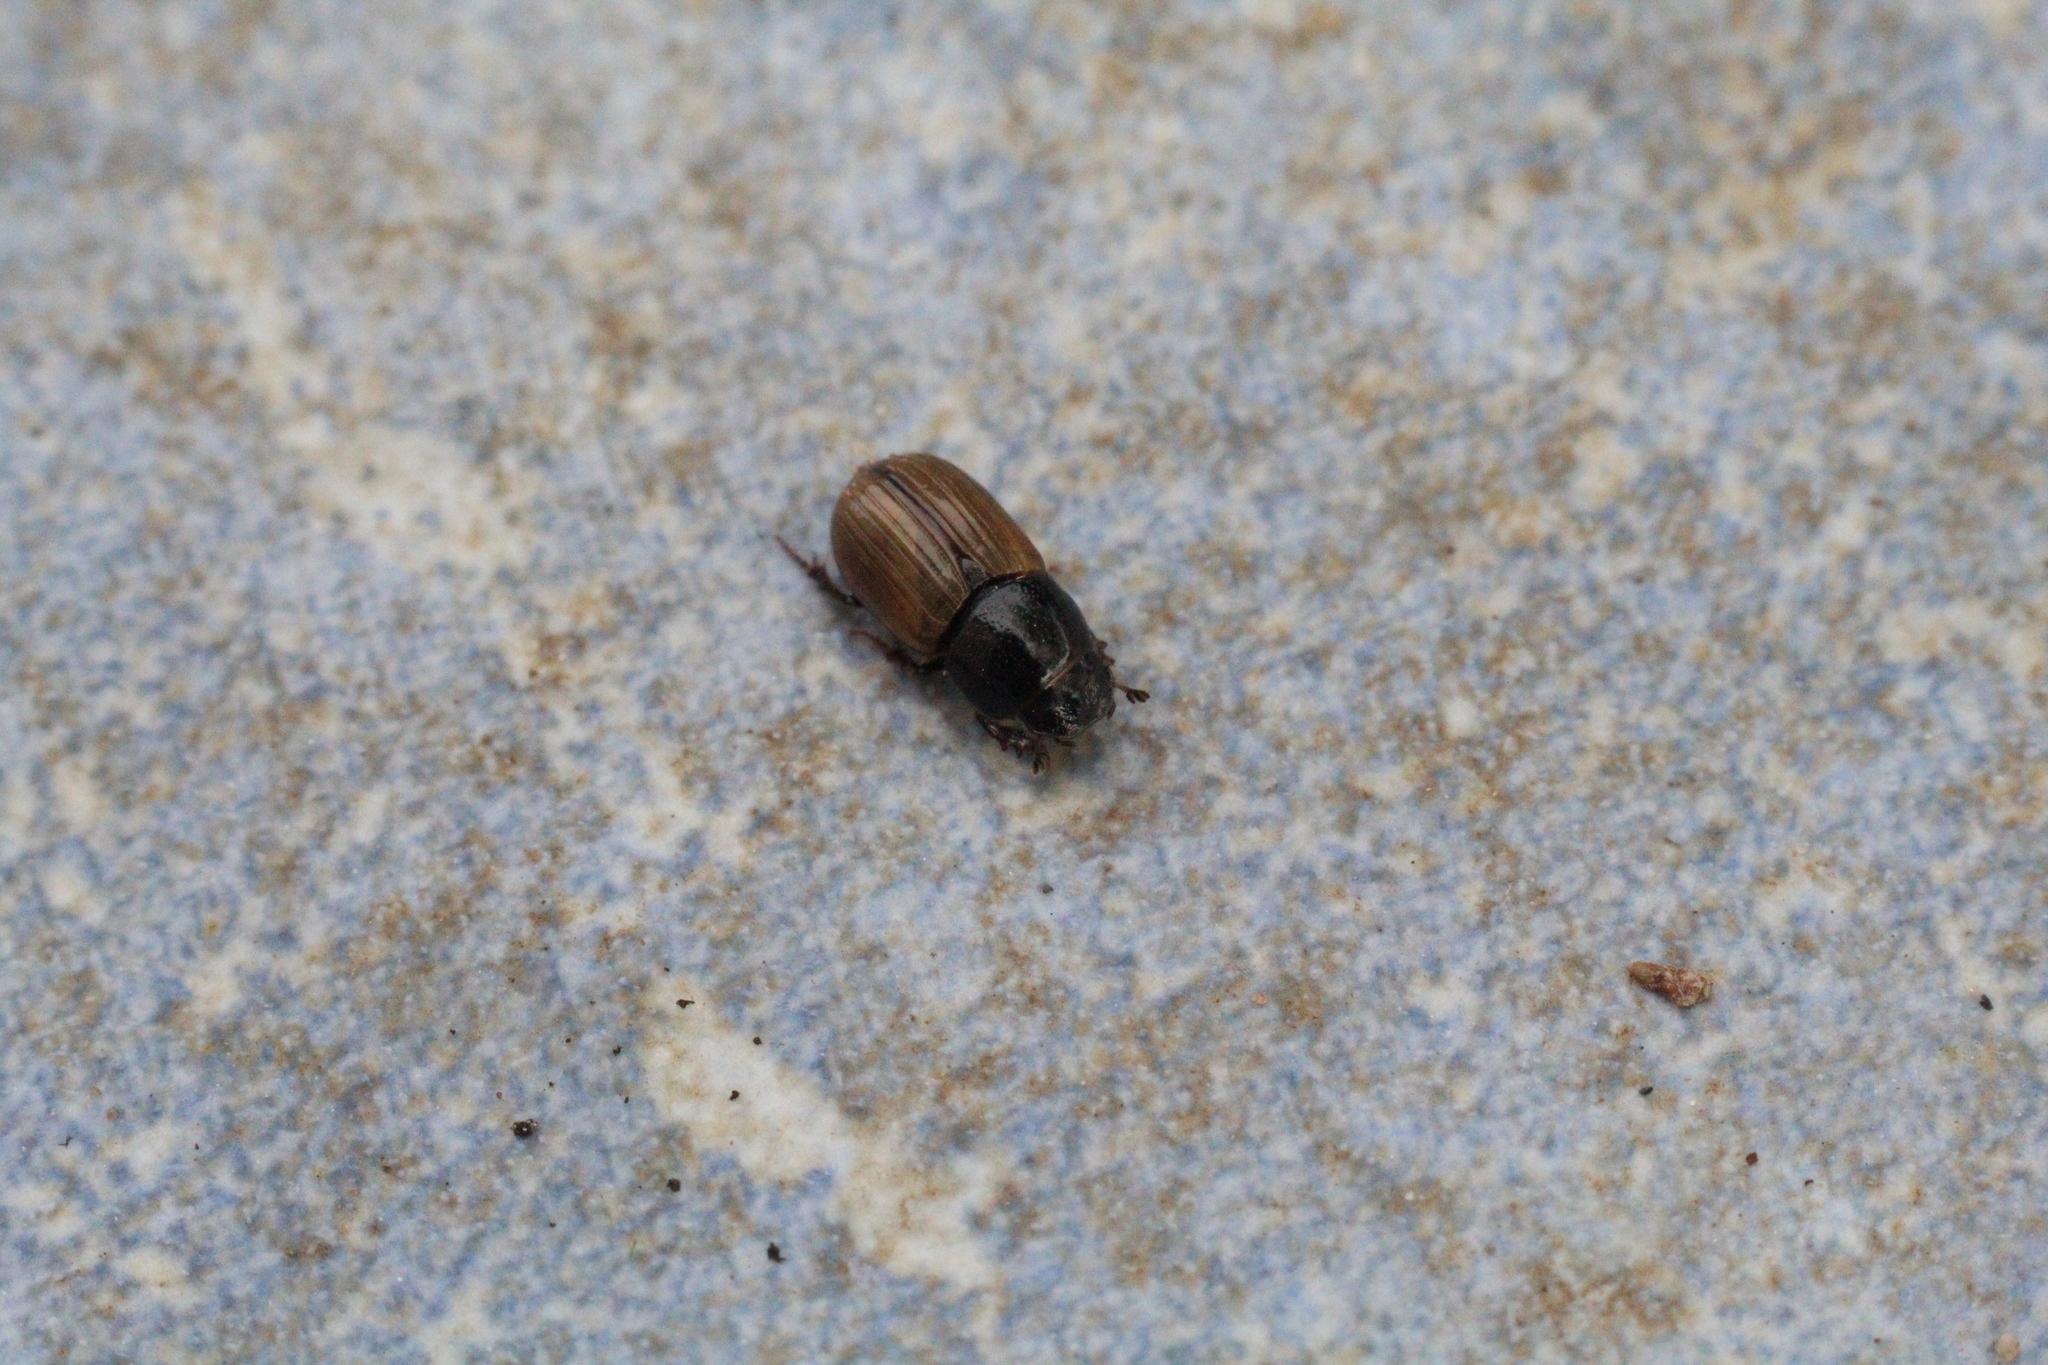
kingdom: Animalia
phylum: Arthropoda
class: Insecta
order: Coleoptera
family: Scarabaeidae
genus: Aphodius
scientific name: Aphodius foetidus
